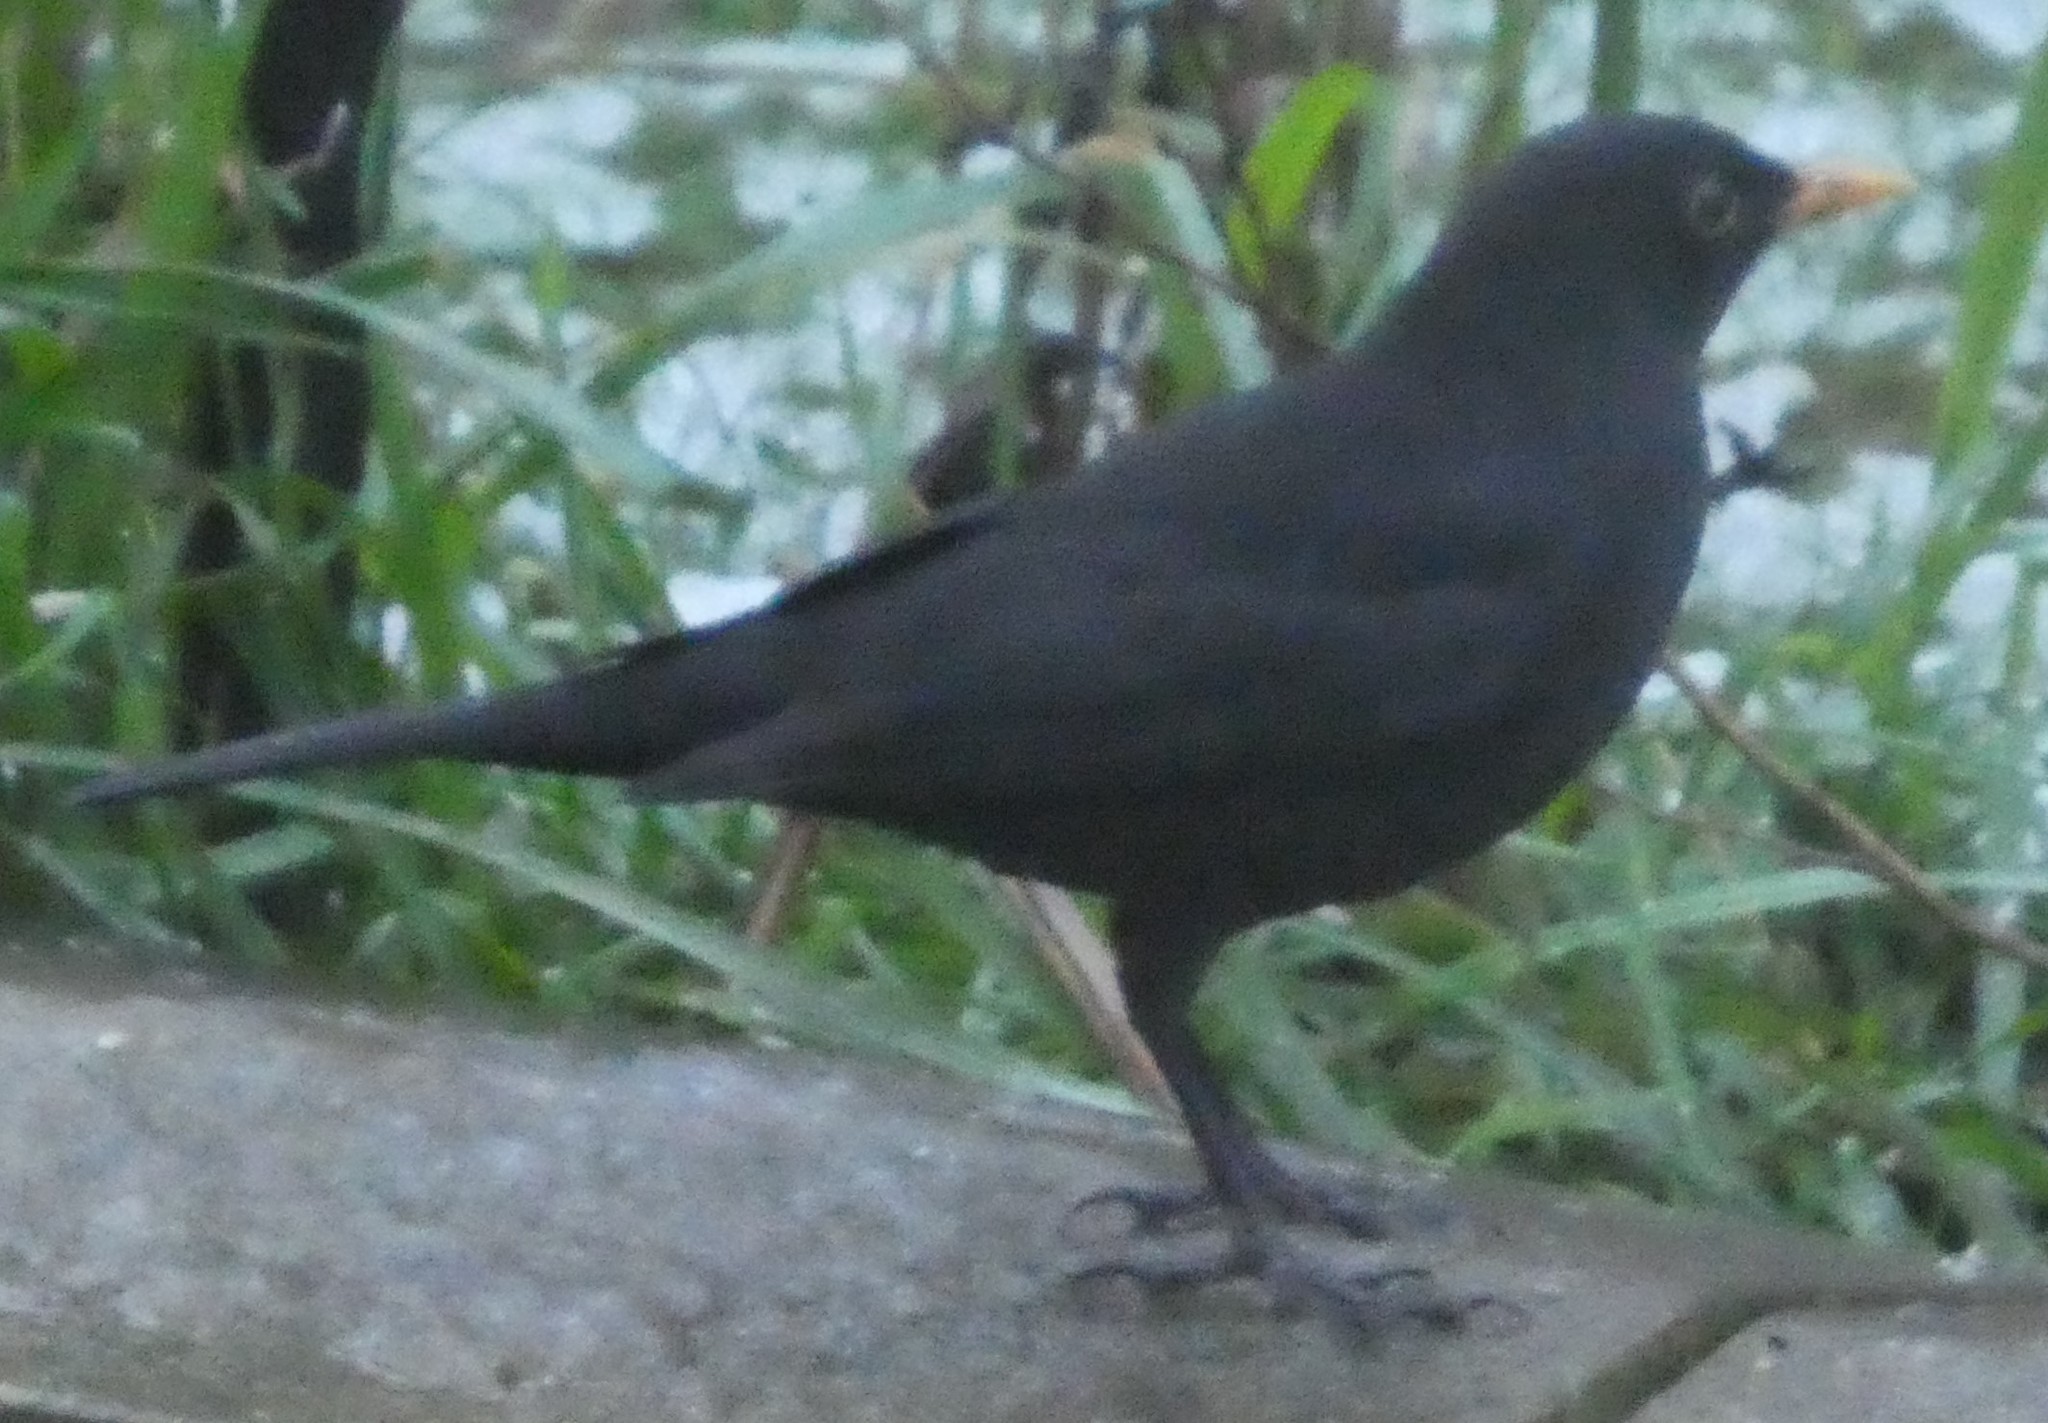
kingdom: Animalia
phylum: Chordata
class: Aves
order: Passeriformes
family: Turdidae
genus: Turdus
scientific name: Turdus merula
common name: Common blackbird
